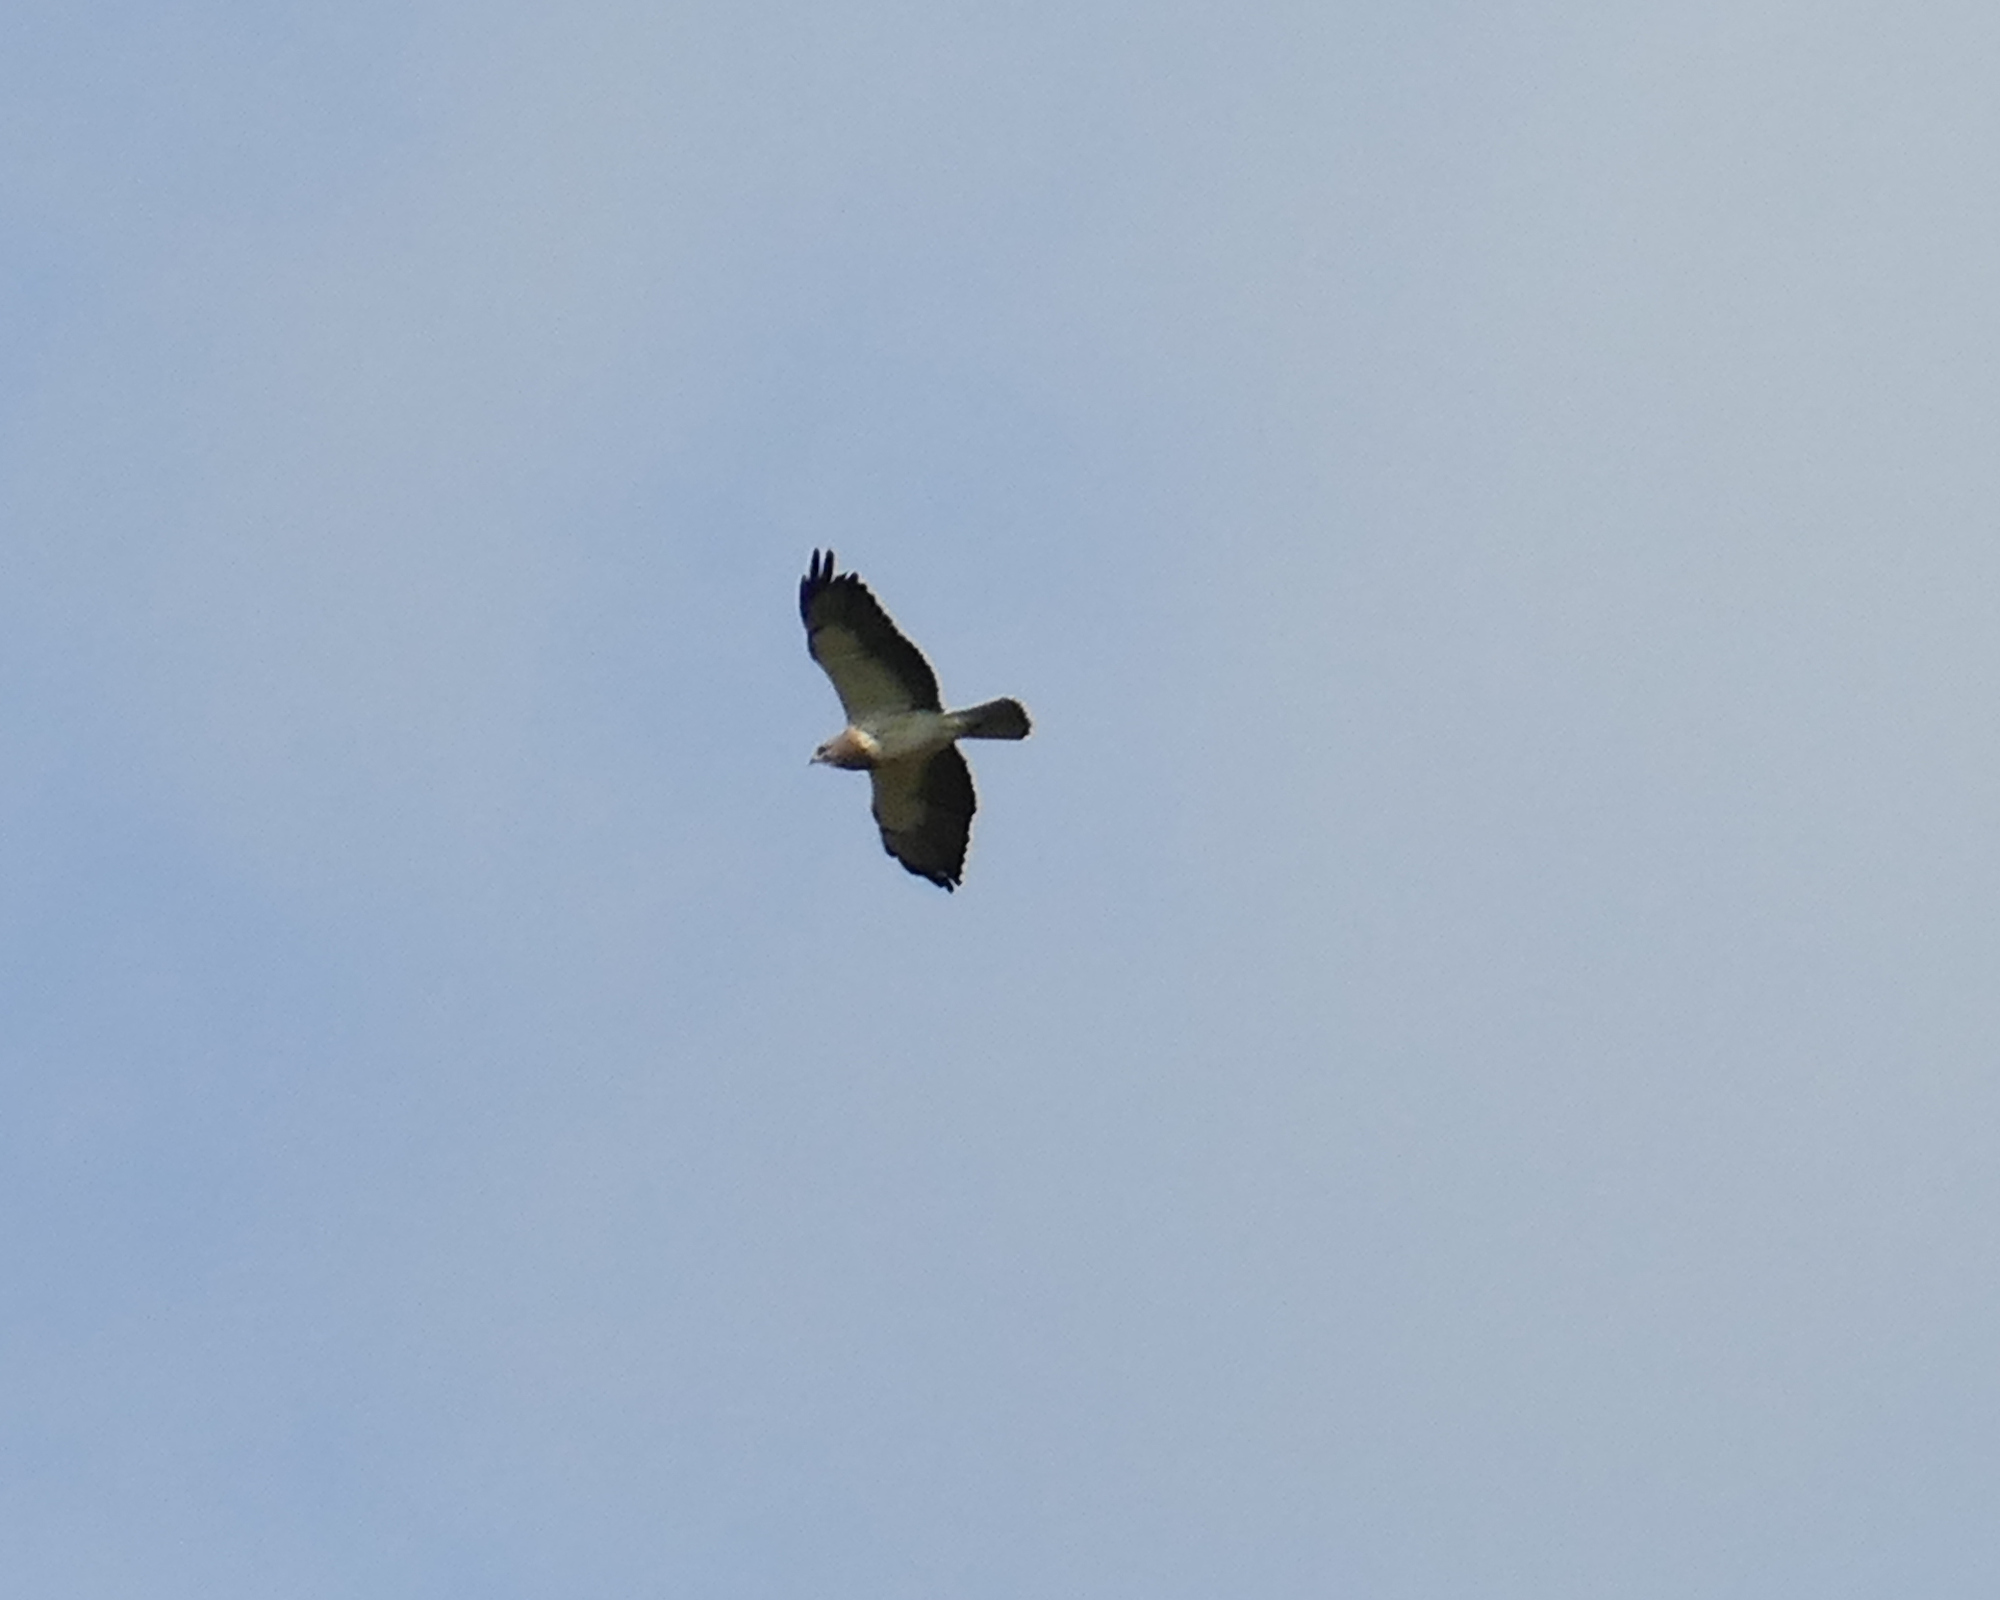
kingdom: Animalia
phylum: Chordata
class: Aves
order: Accipitriformes
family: Accipitridae
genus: Buteo
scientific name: Buteo swainsoni
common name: Swainson's hawk
